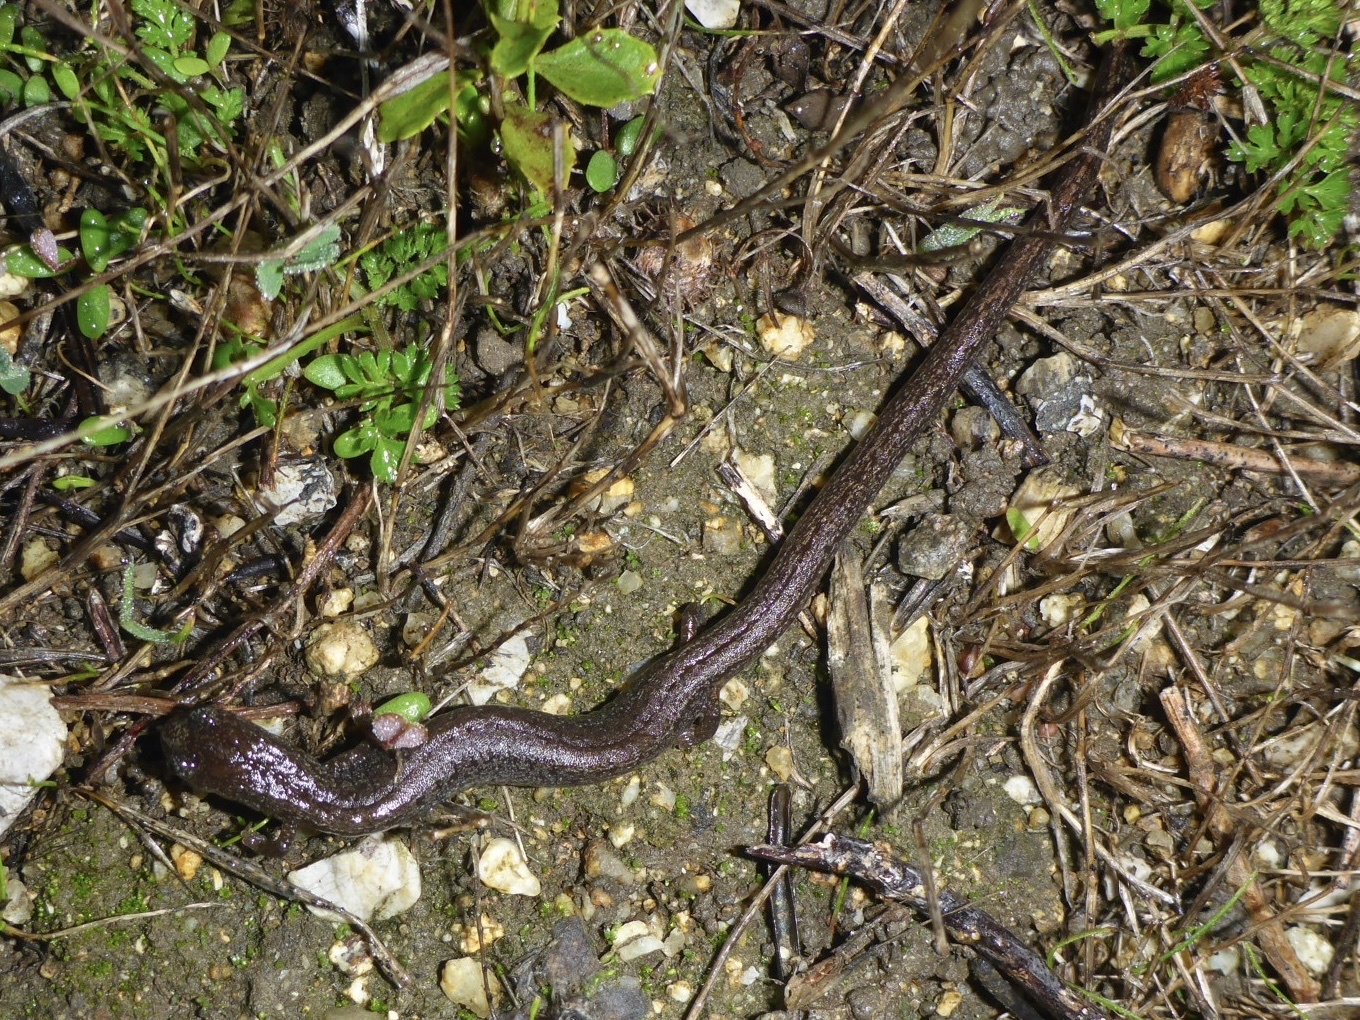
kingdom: Animalia
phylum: Chordata
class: Amphibia
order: Caudata
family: Plethodontidae
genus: Batrachoseps
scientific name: Batrachoseps attenuatus
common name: California slender salamander
